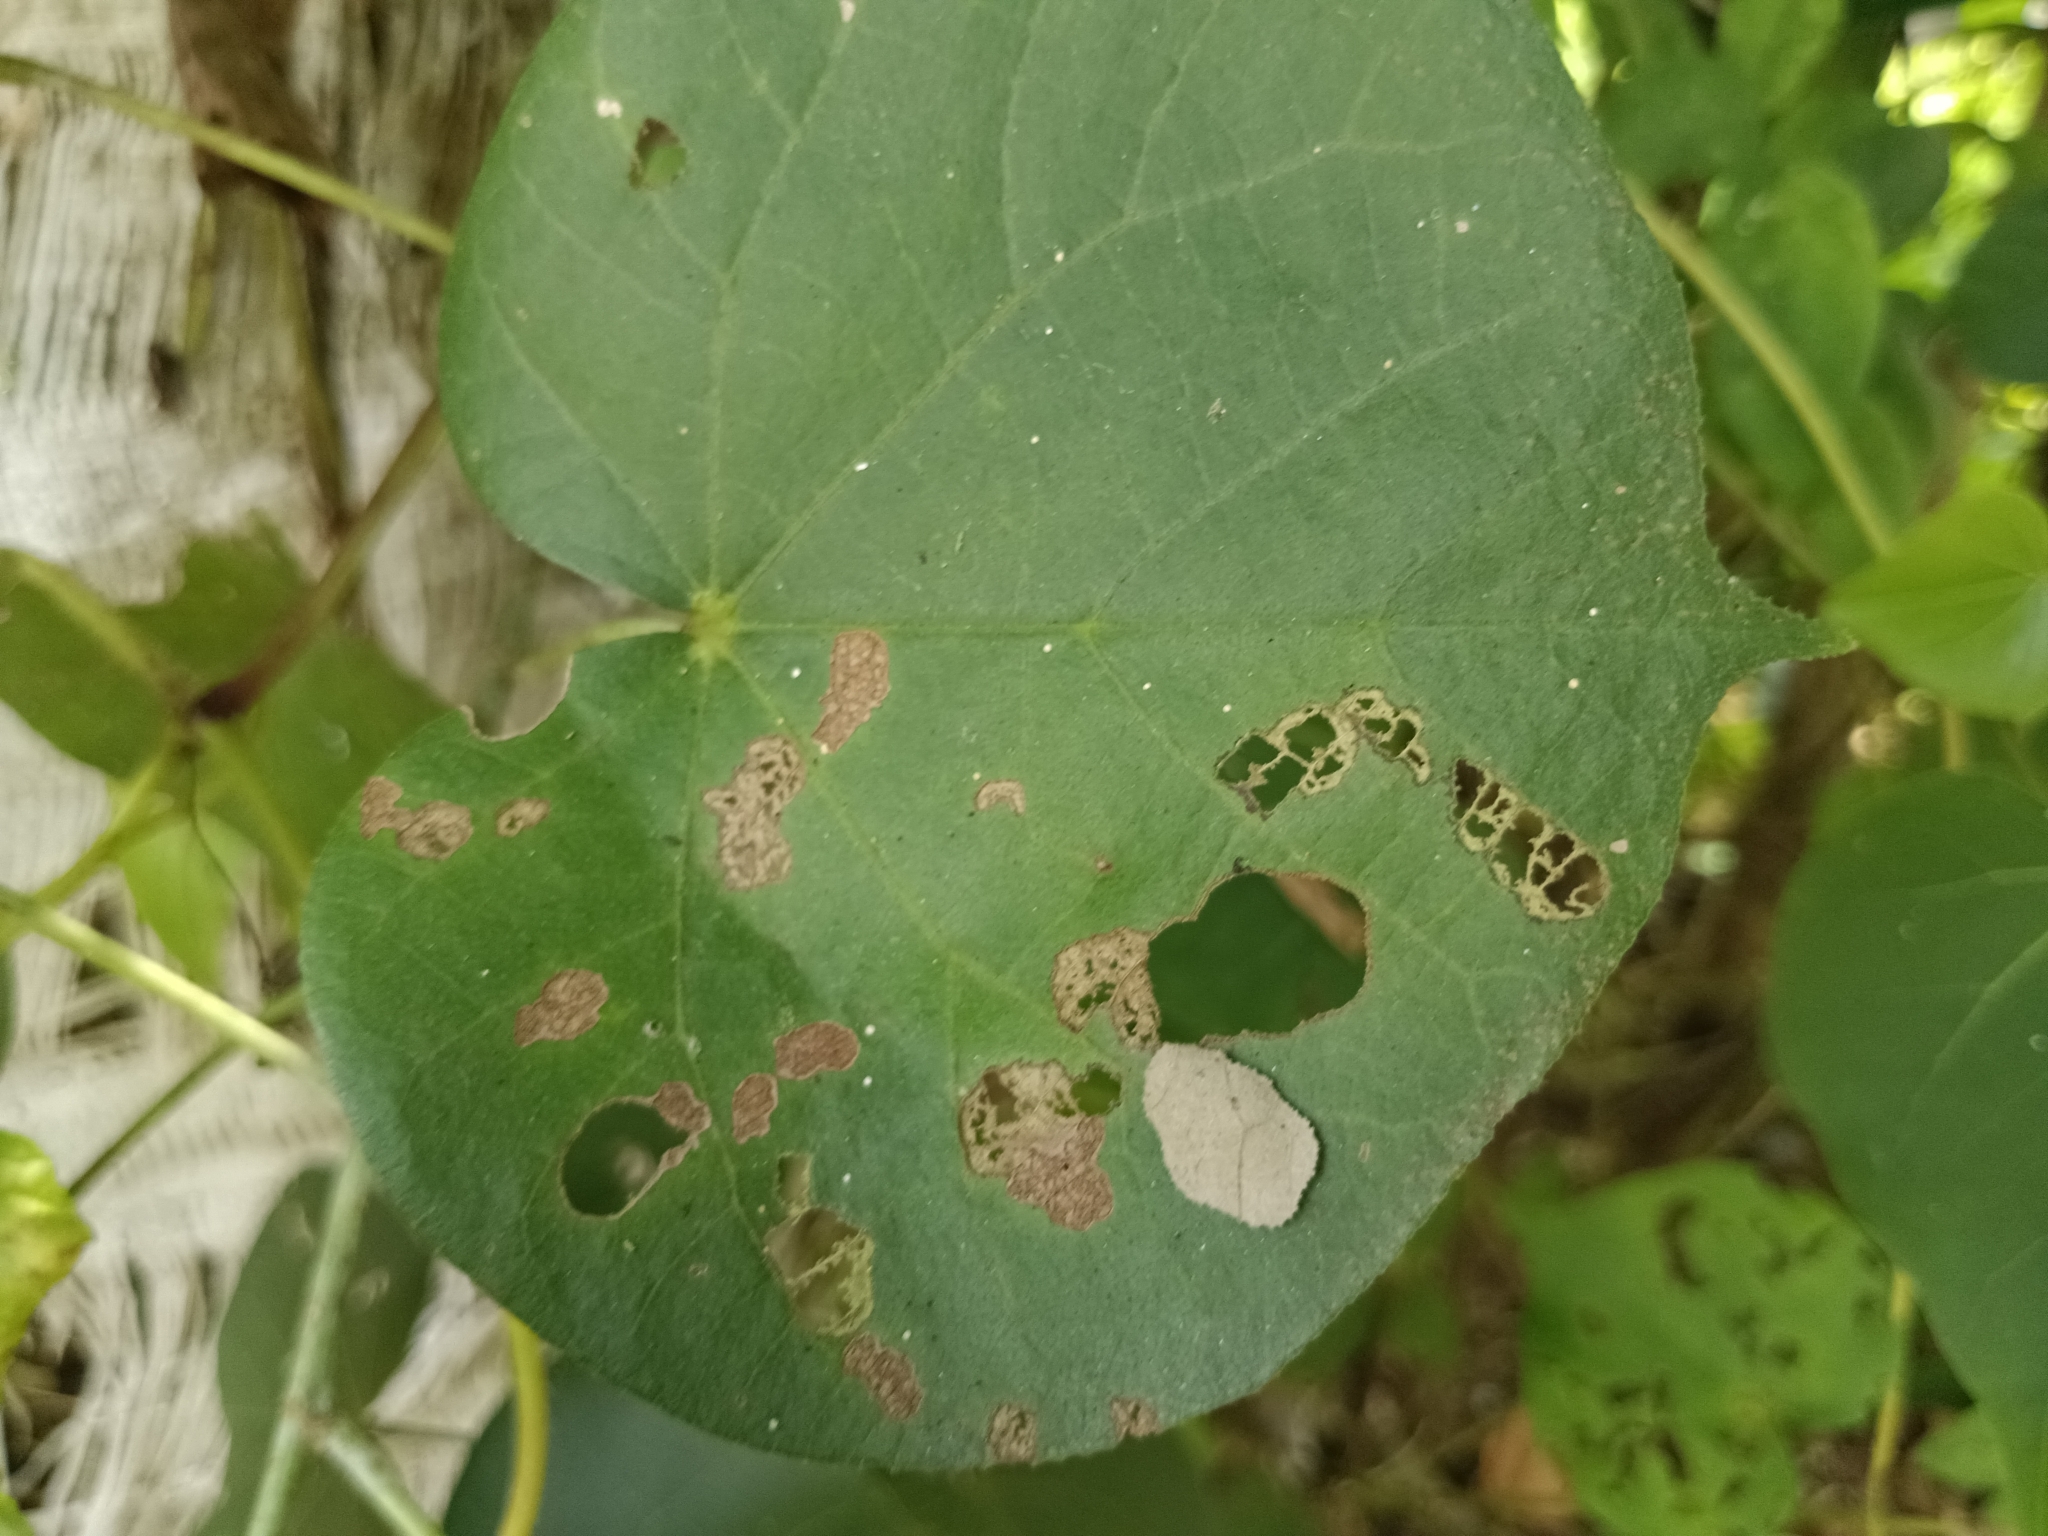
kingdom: Animalia
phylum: Arthropoda
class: Insecta
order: Lepidoptera
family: Hesperiidae
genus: Coladenia
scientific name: Coladenia
